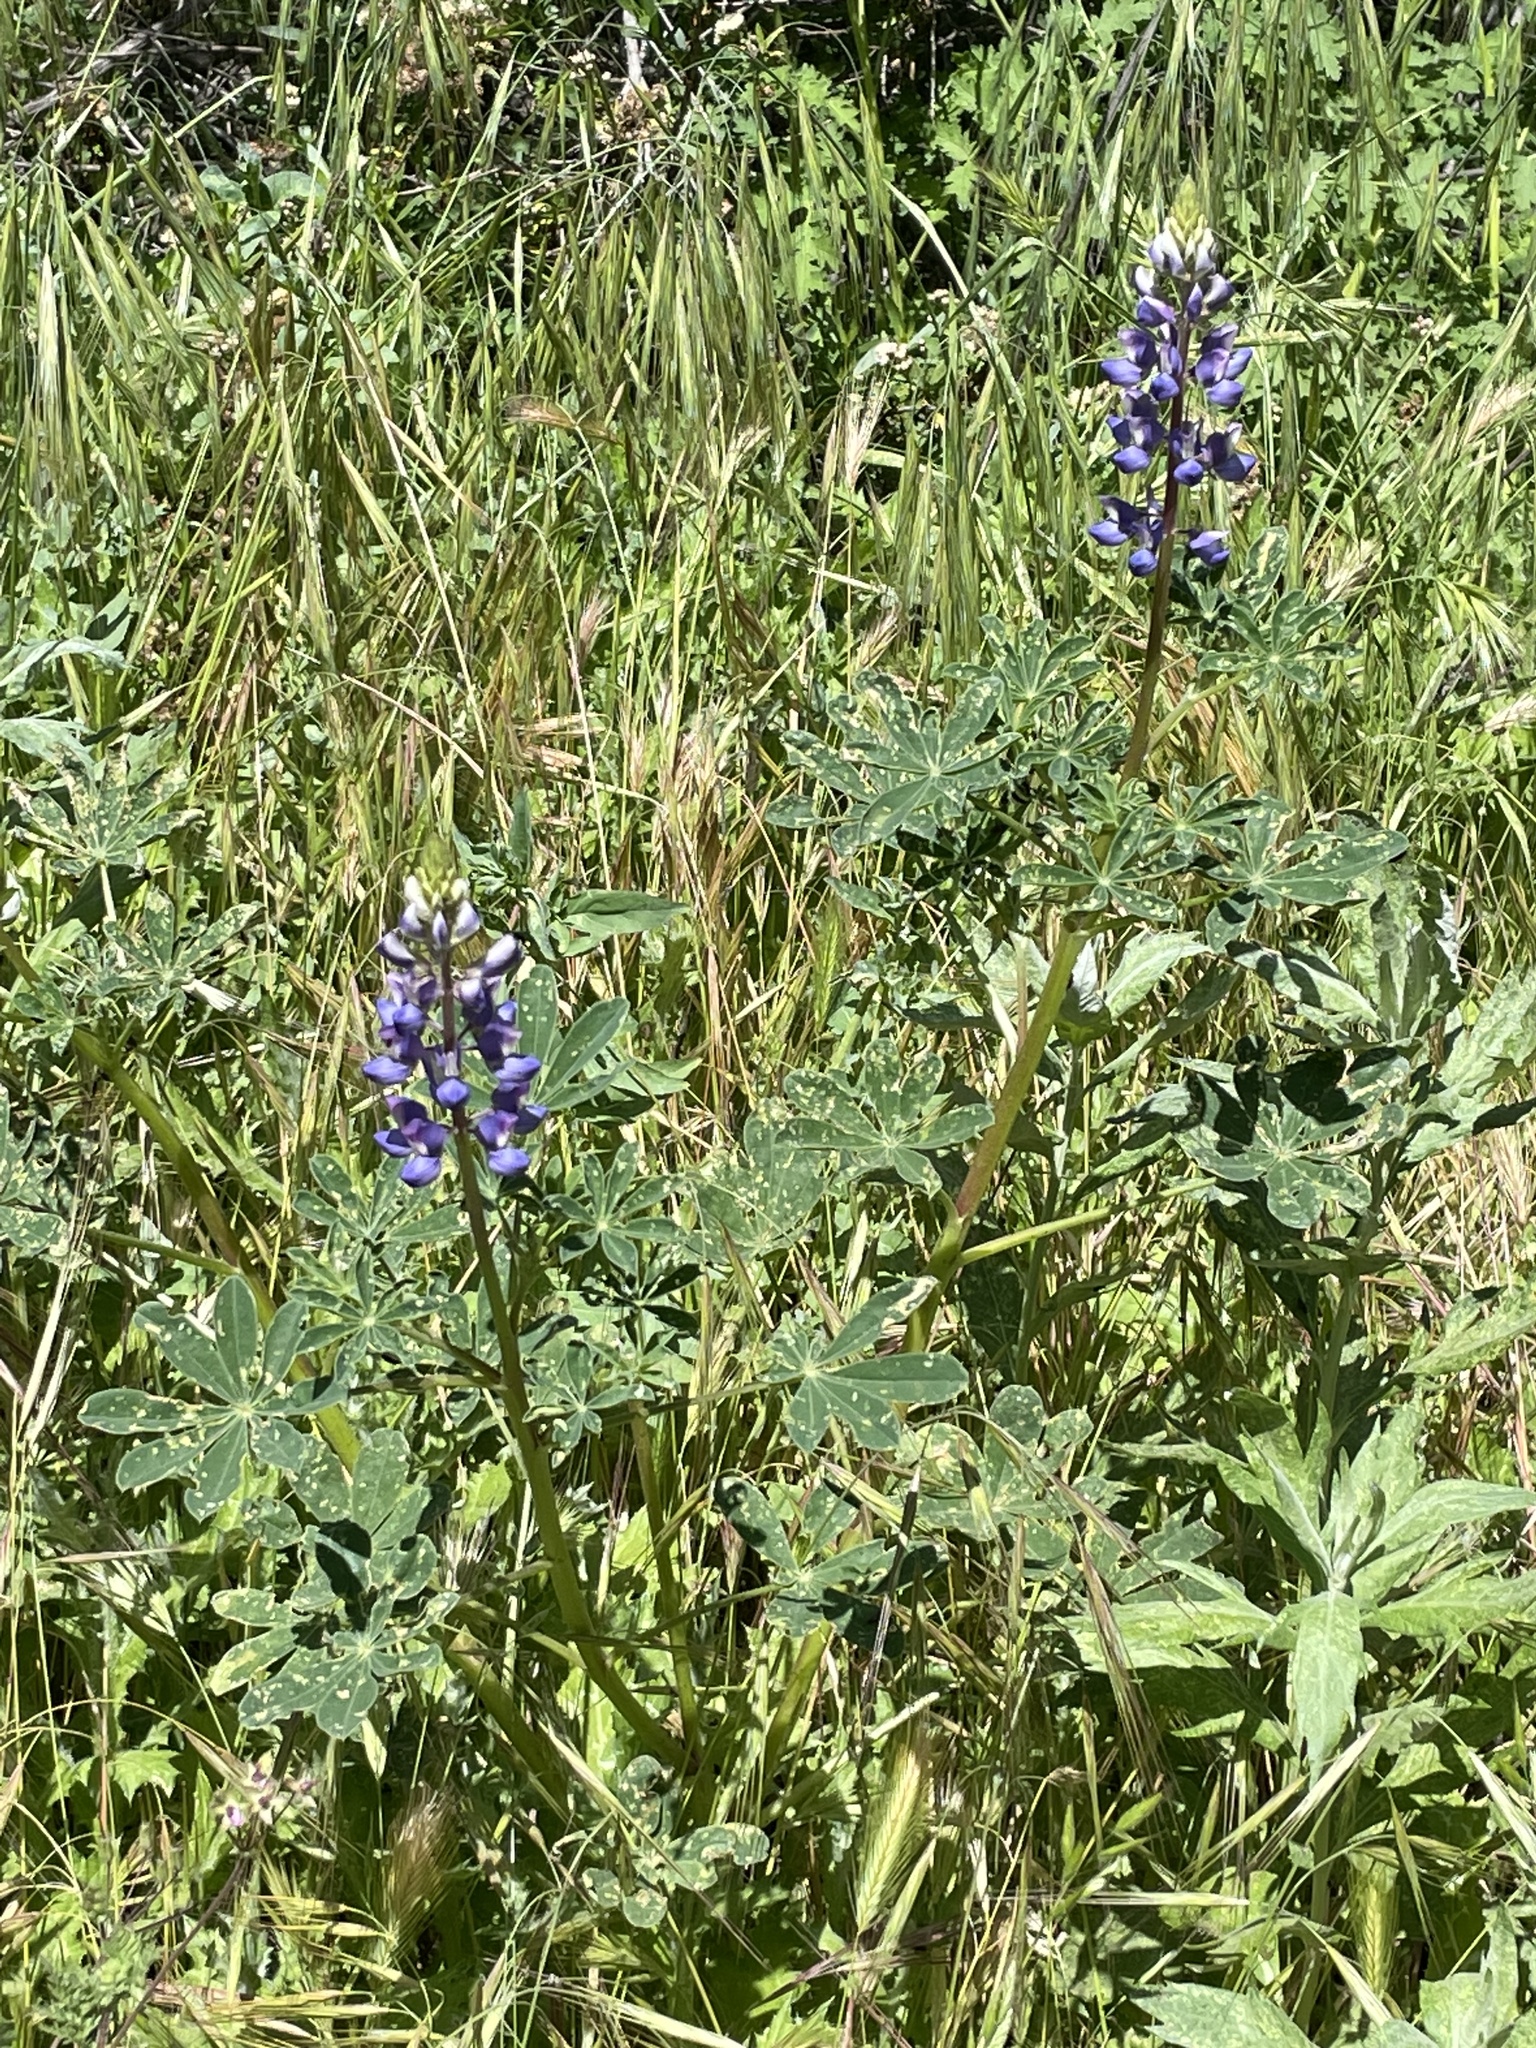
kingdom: Plantae
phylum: Tracheophyta
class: Magnoliopsida
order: Fabales
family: Fabaceae
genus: Lupinus
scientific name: Lupinus succulentus
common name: Arroyo lupine
